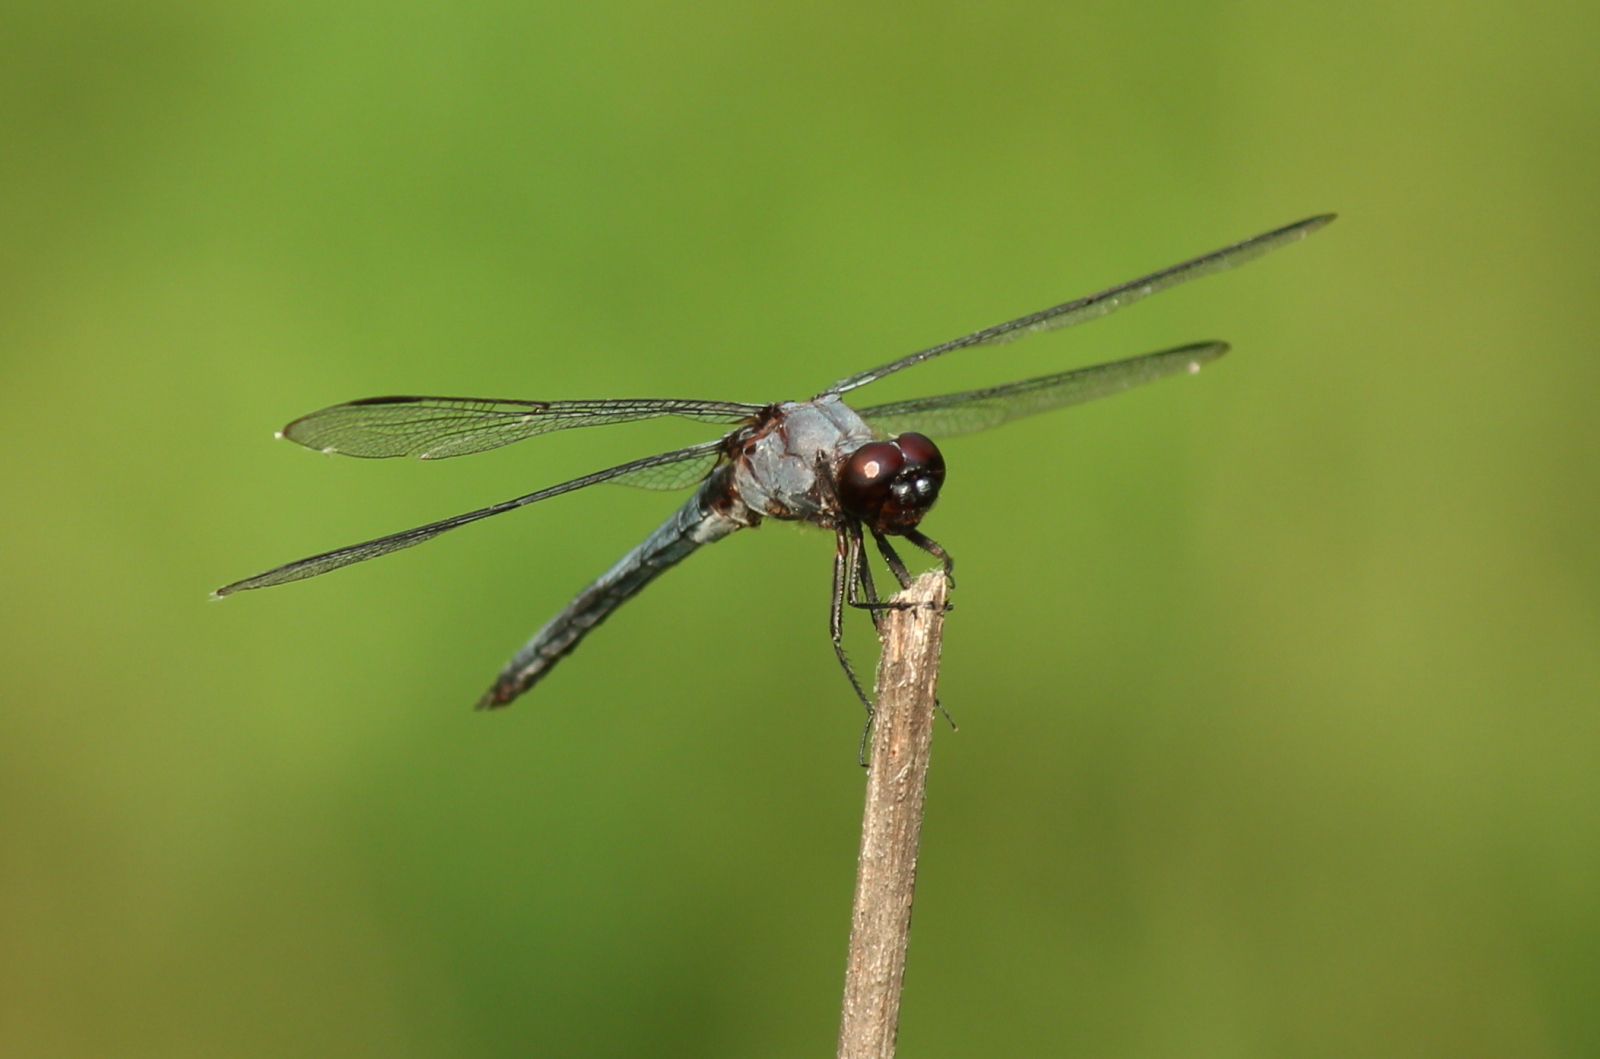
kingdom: Animalia
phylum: Arthropoda
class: Insecta
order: Odonata
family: Libellulidae
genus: Libellula
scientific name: Libellula incesta
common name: Slaty skimmer
